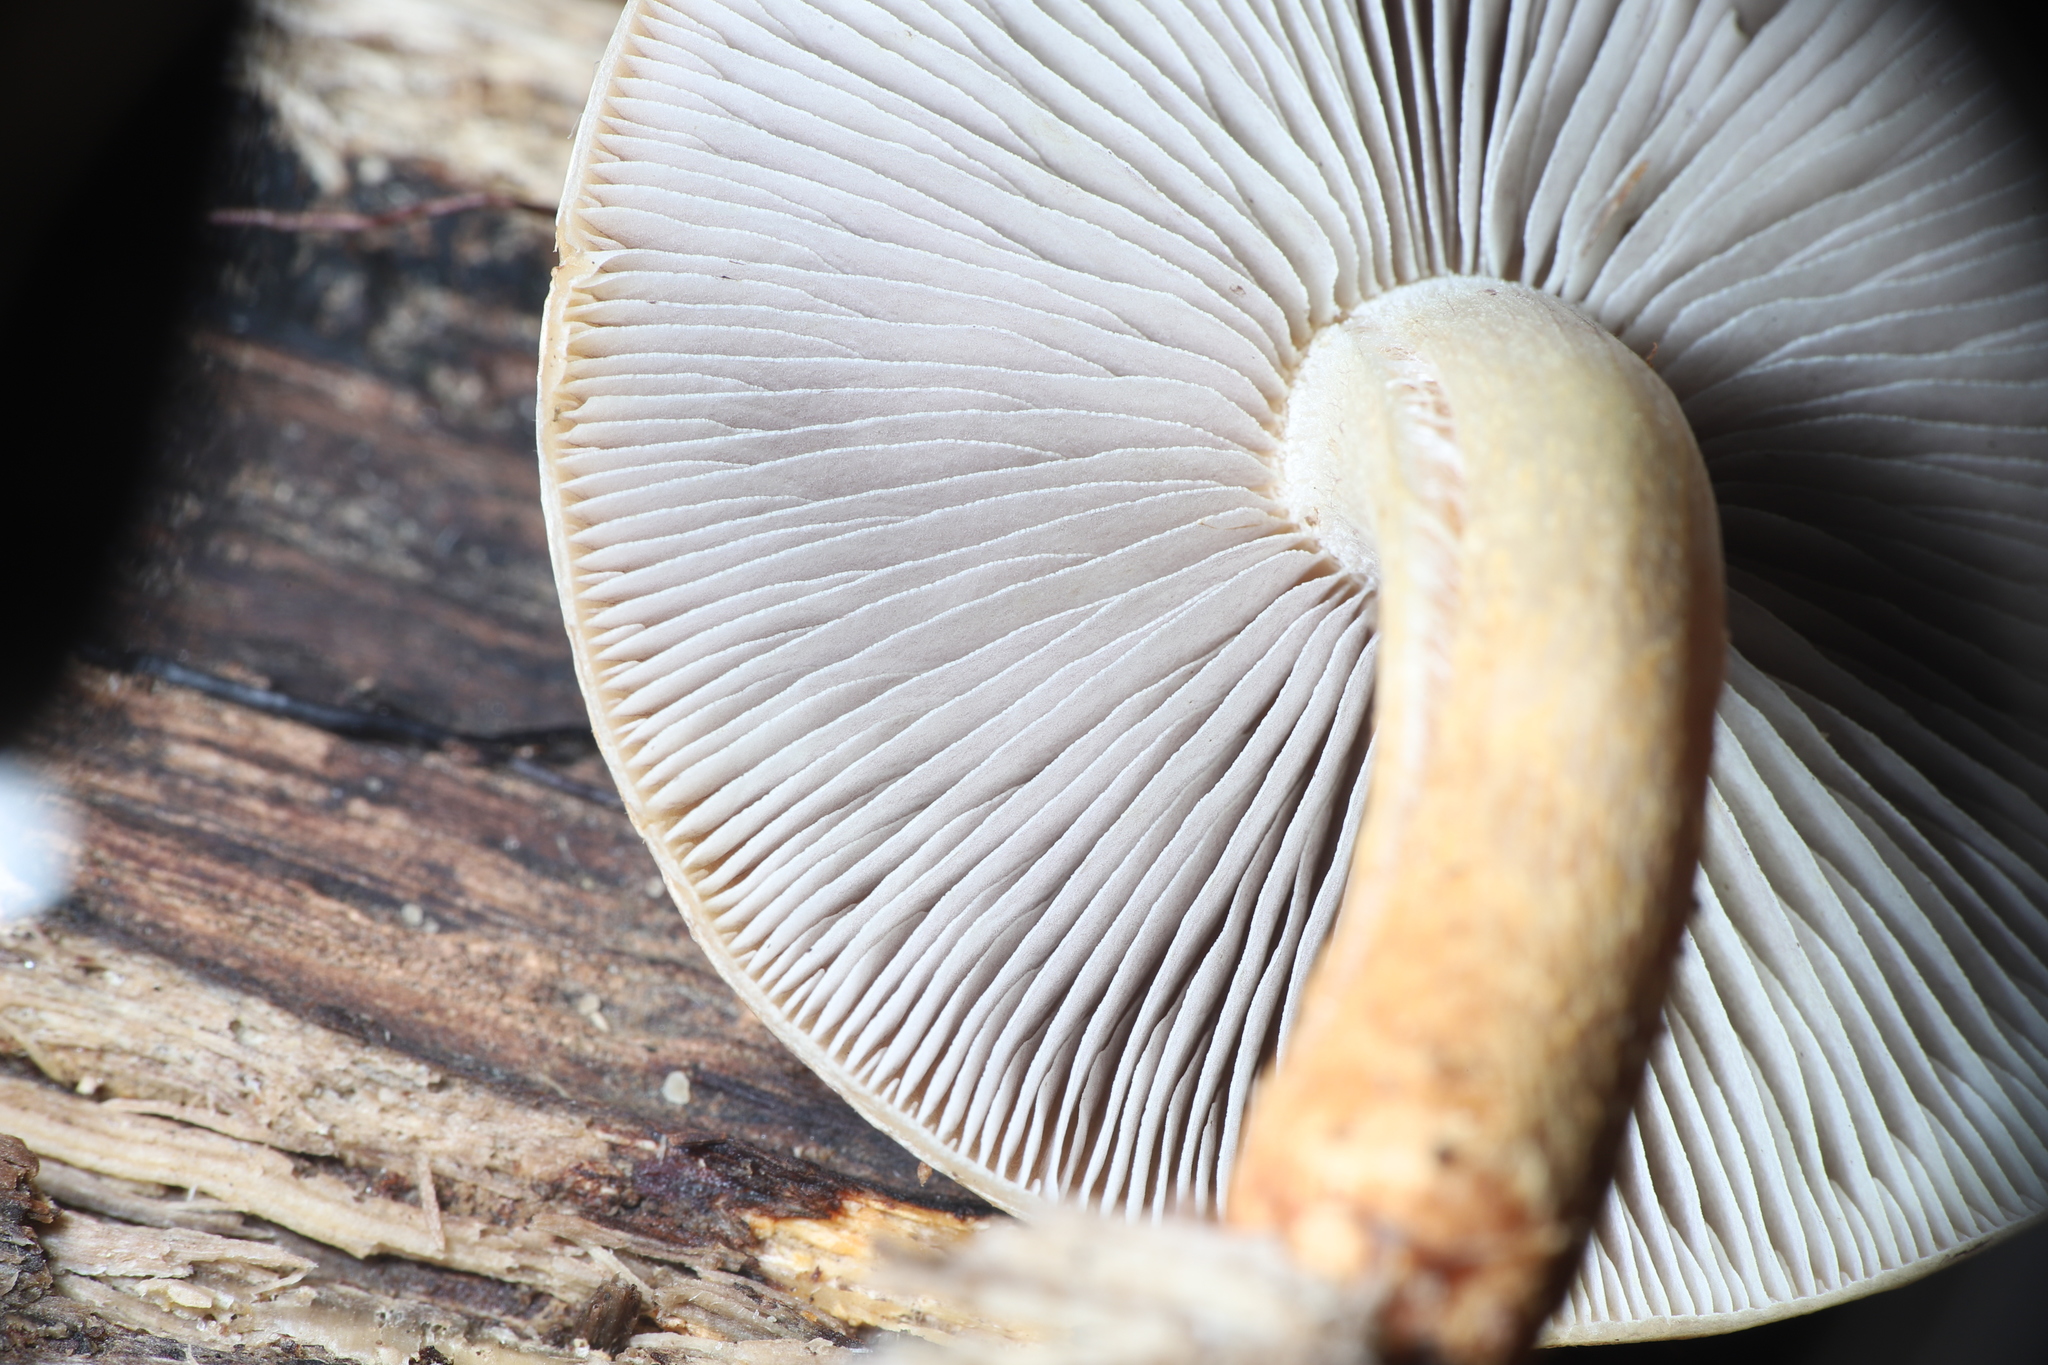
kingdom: Fungi
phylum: Basidiomycota
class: Agaricomycetes
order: Agaricales
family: Strophariaceae
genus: Hypholoma
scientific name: Hypholoma lateritium
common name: Brick caps
